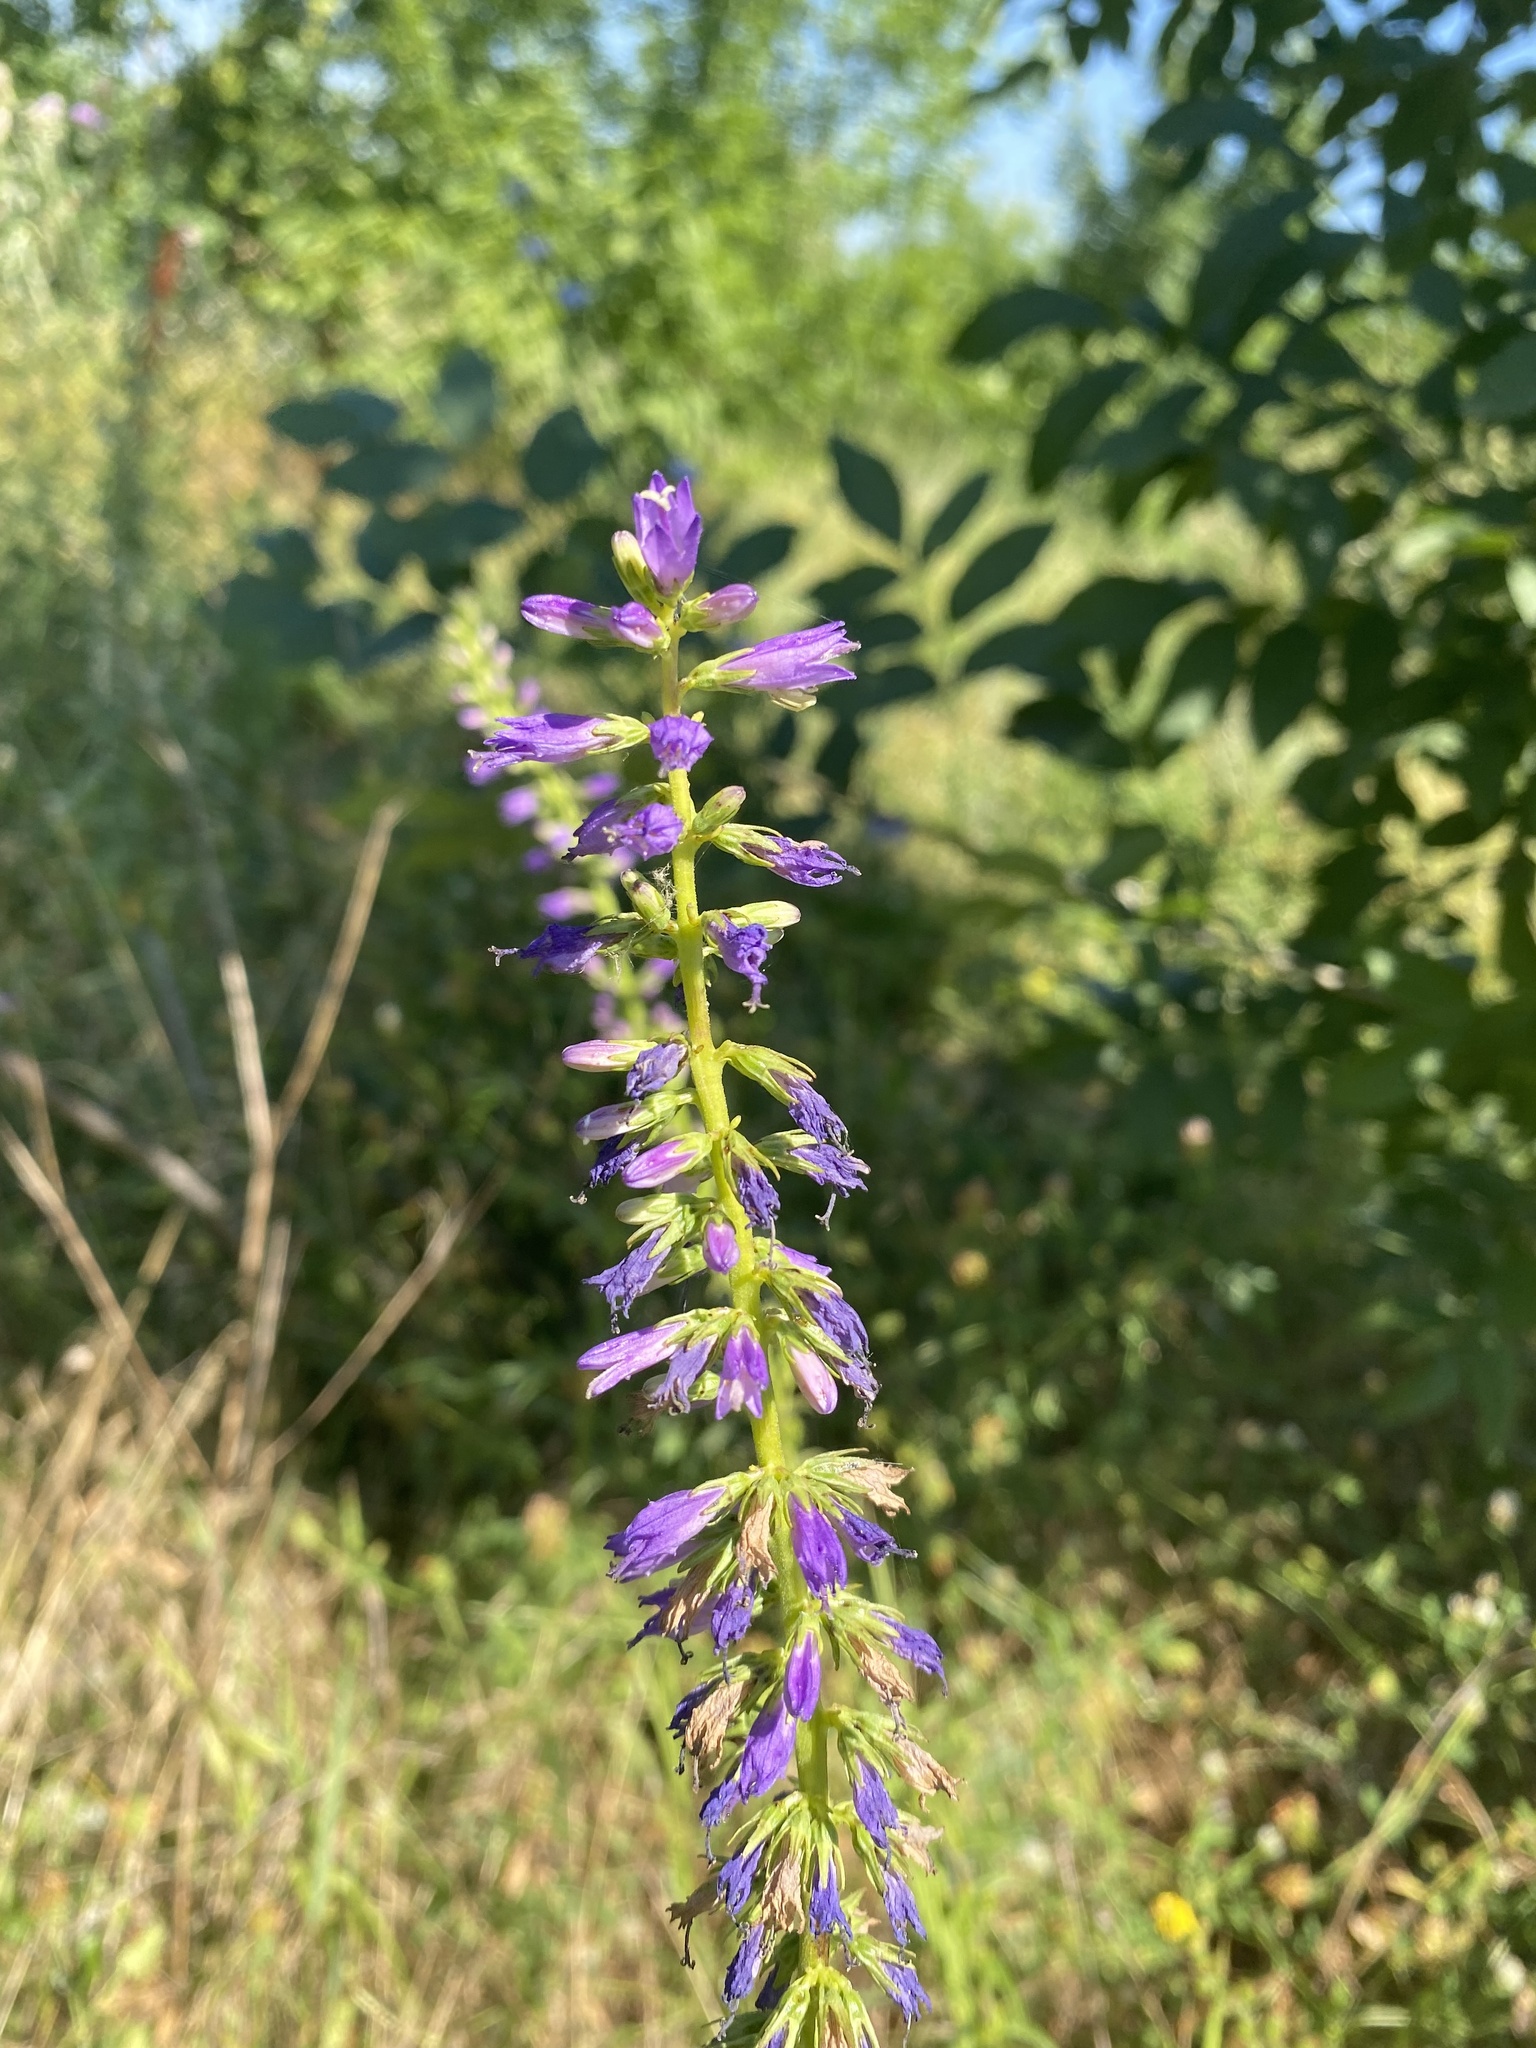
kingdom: Plantae
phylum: Tracheophyta
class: Magnoliopsida
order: Asterales
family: Campanulaceae
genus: Campanula
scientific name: Campanula bononiensis
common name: Pale bellflower
